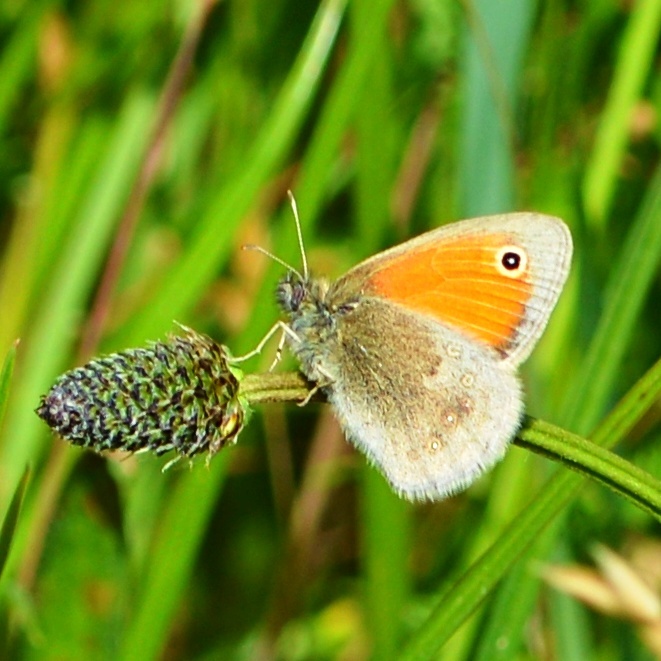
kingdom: Animalia
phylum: Arthropoda
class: Insecta
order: Lepidoptera
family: Nymphalidae
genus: Coenonympha
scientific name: Coenonympha pamphilus
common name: Small heath
